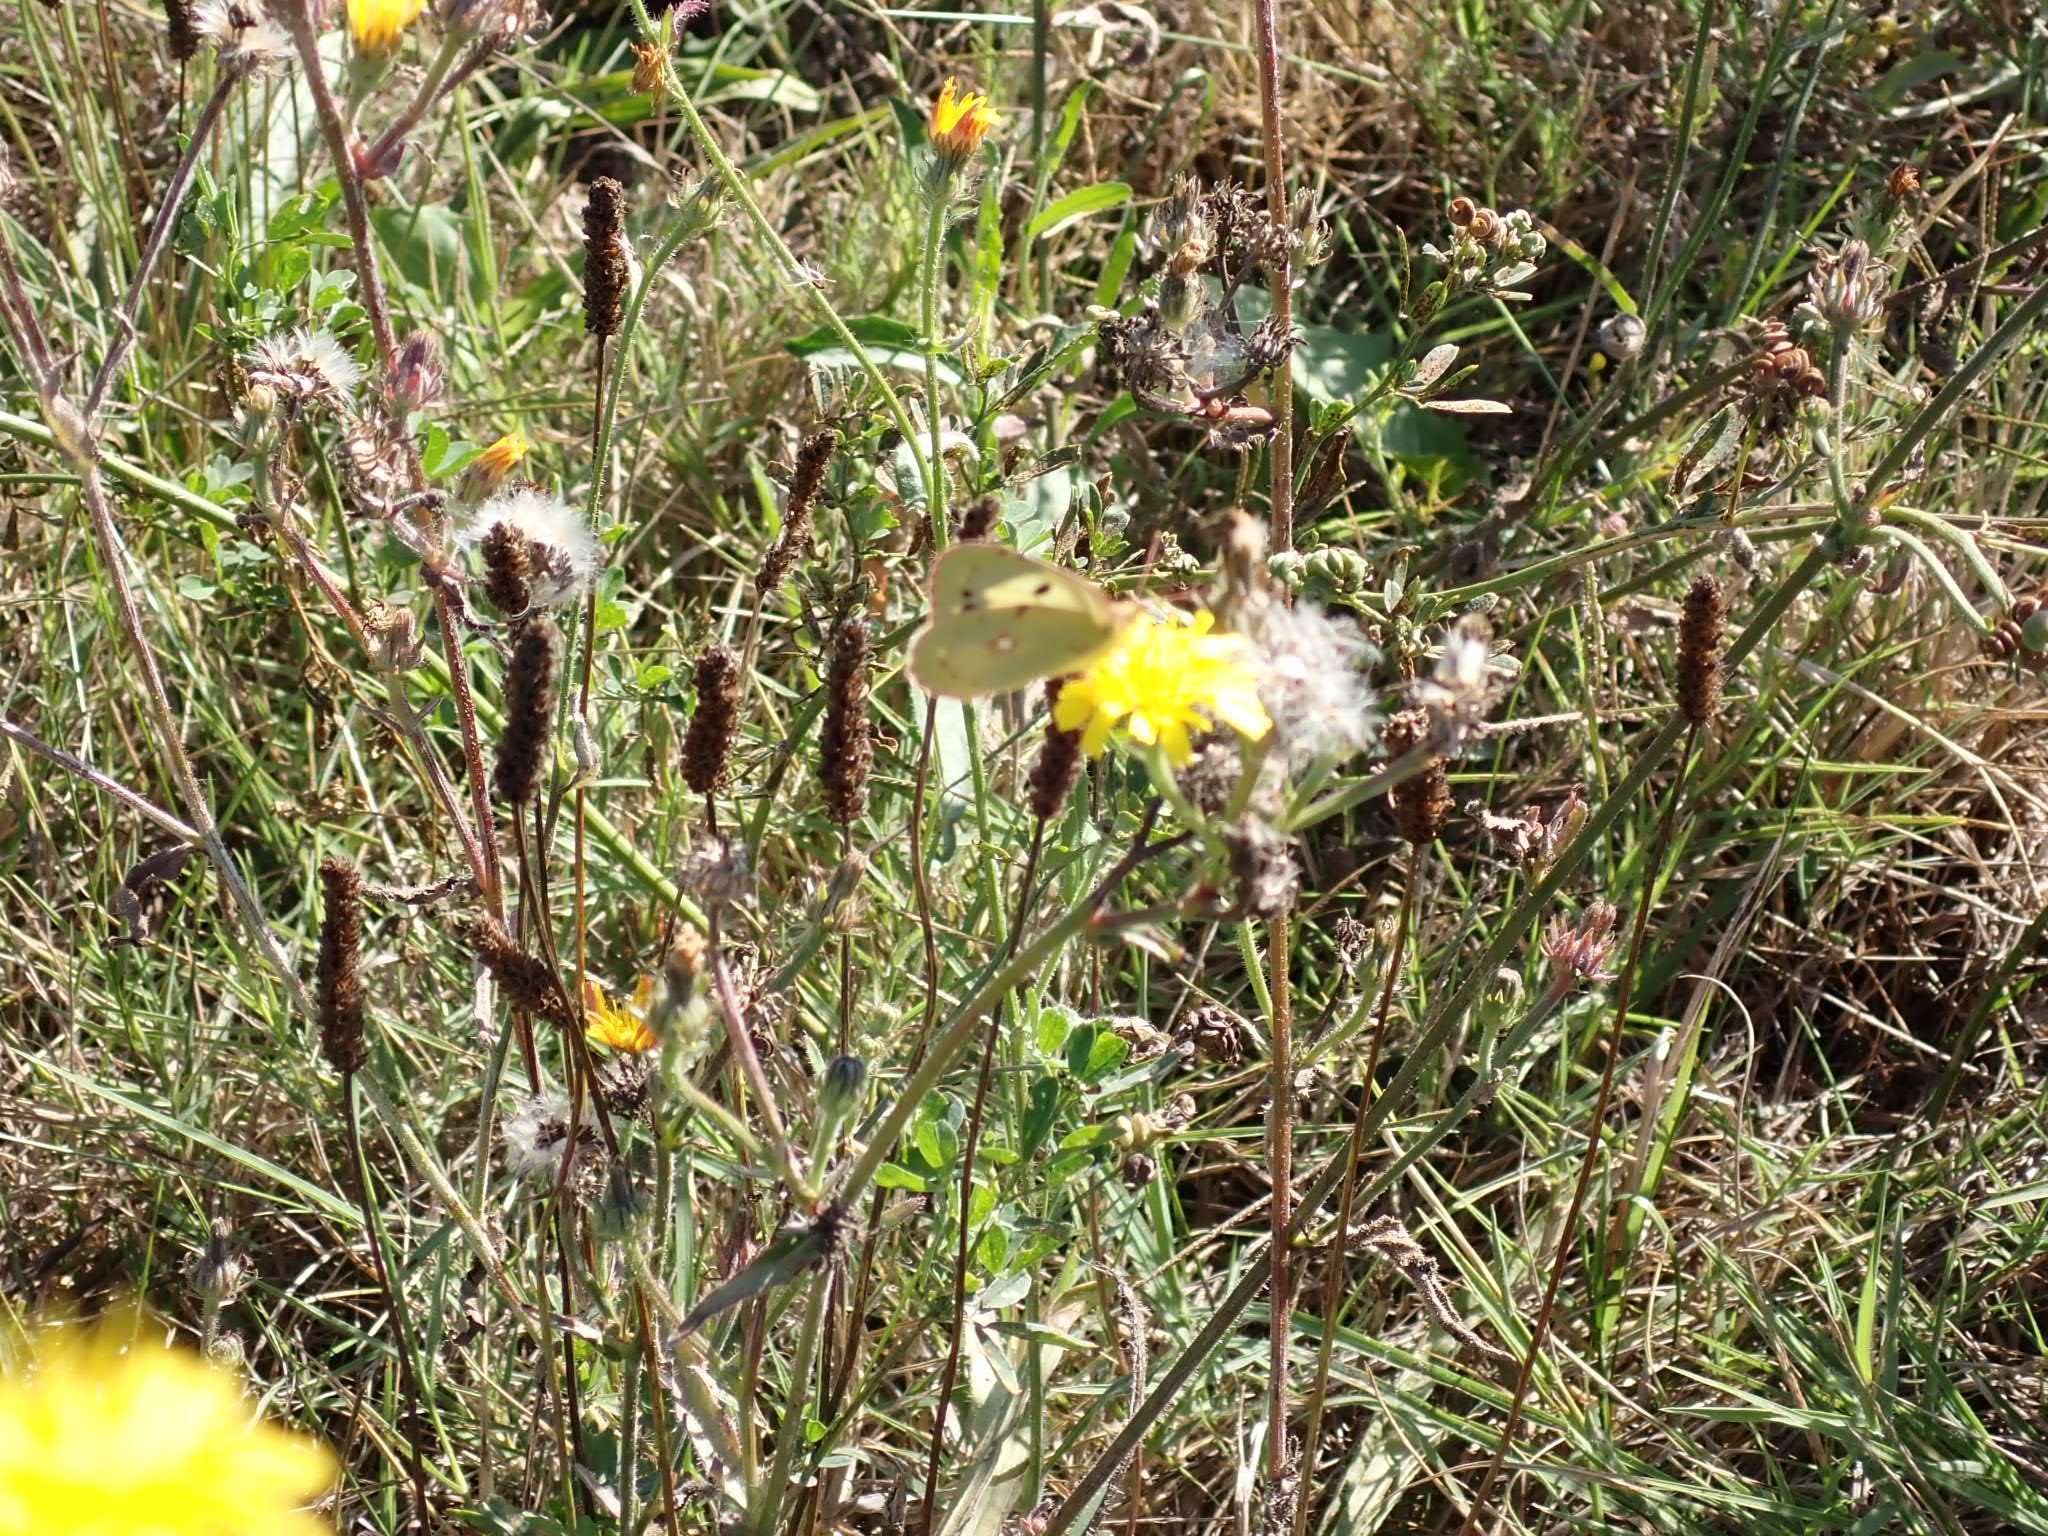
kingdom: Animalia
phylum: Arthropoda
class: Insecta
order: Lepidoptera
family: Hesperiidae
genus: Carcharodus
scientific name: Carcharodus alceae
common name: Mallow skipper
